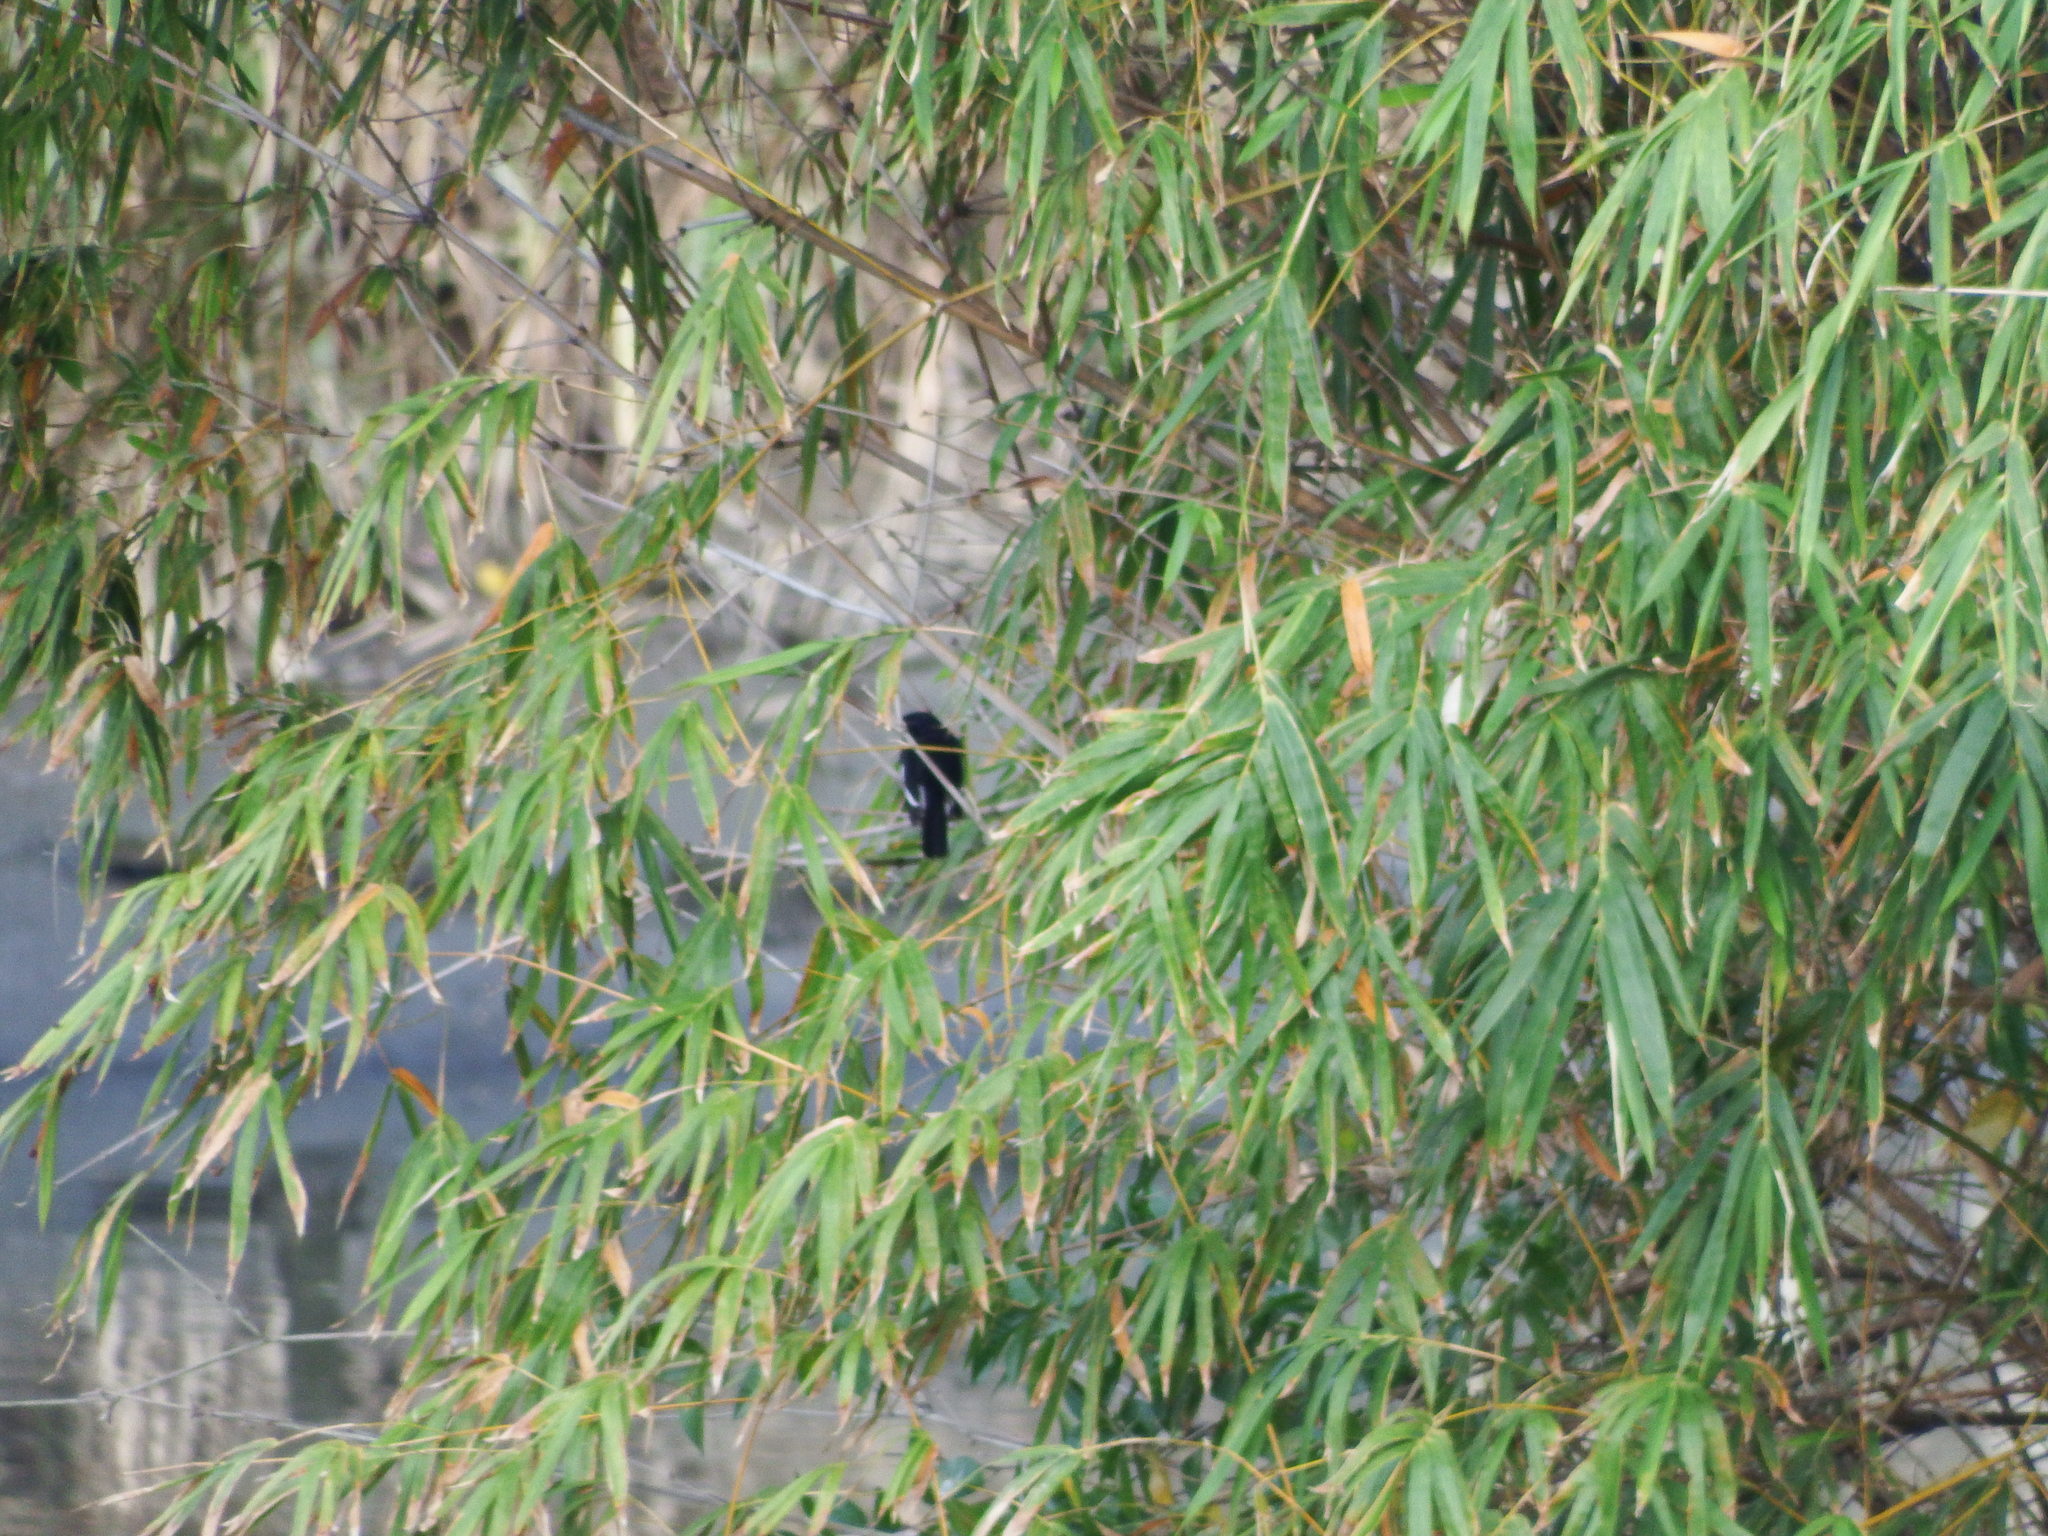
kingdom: Animalia
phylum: Chordata
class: Aves
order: Passeriformes
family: Muscicapidae
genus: Copsychus
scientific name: Copsychus saularis
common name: Oriental magpie-robin
